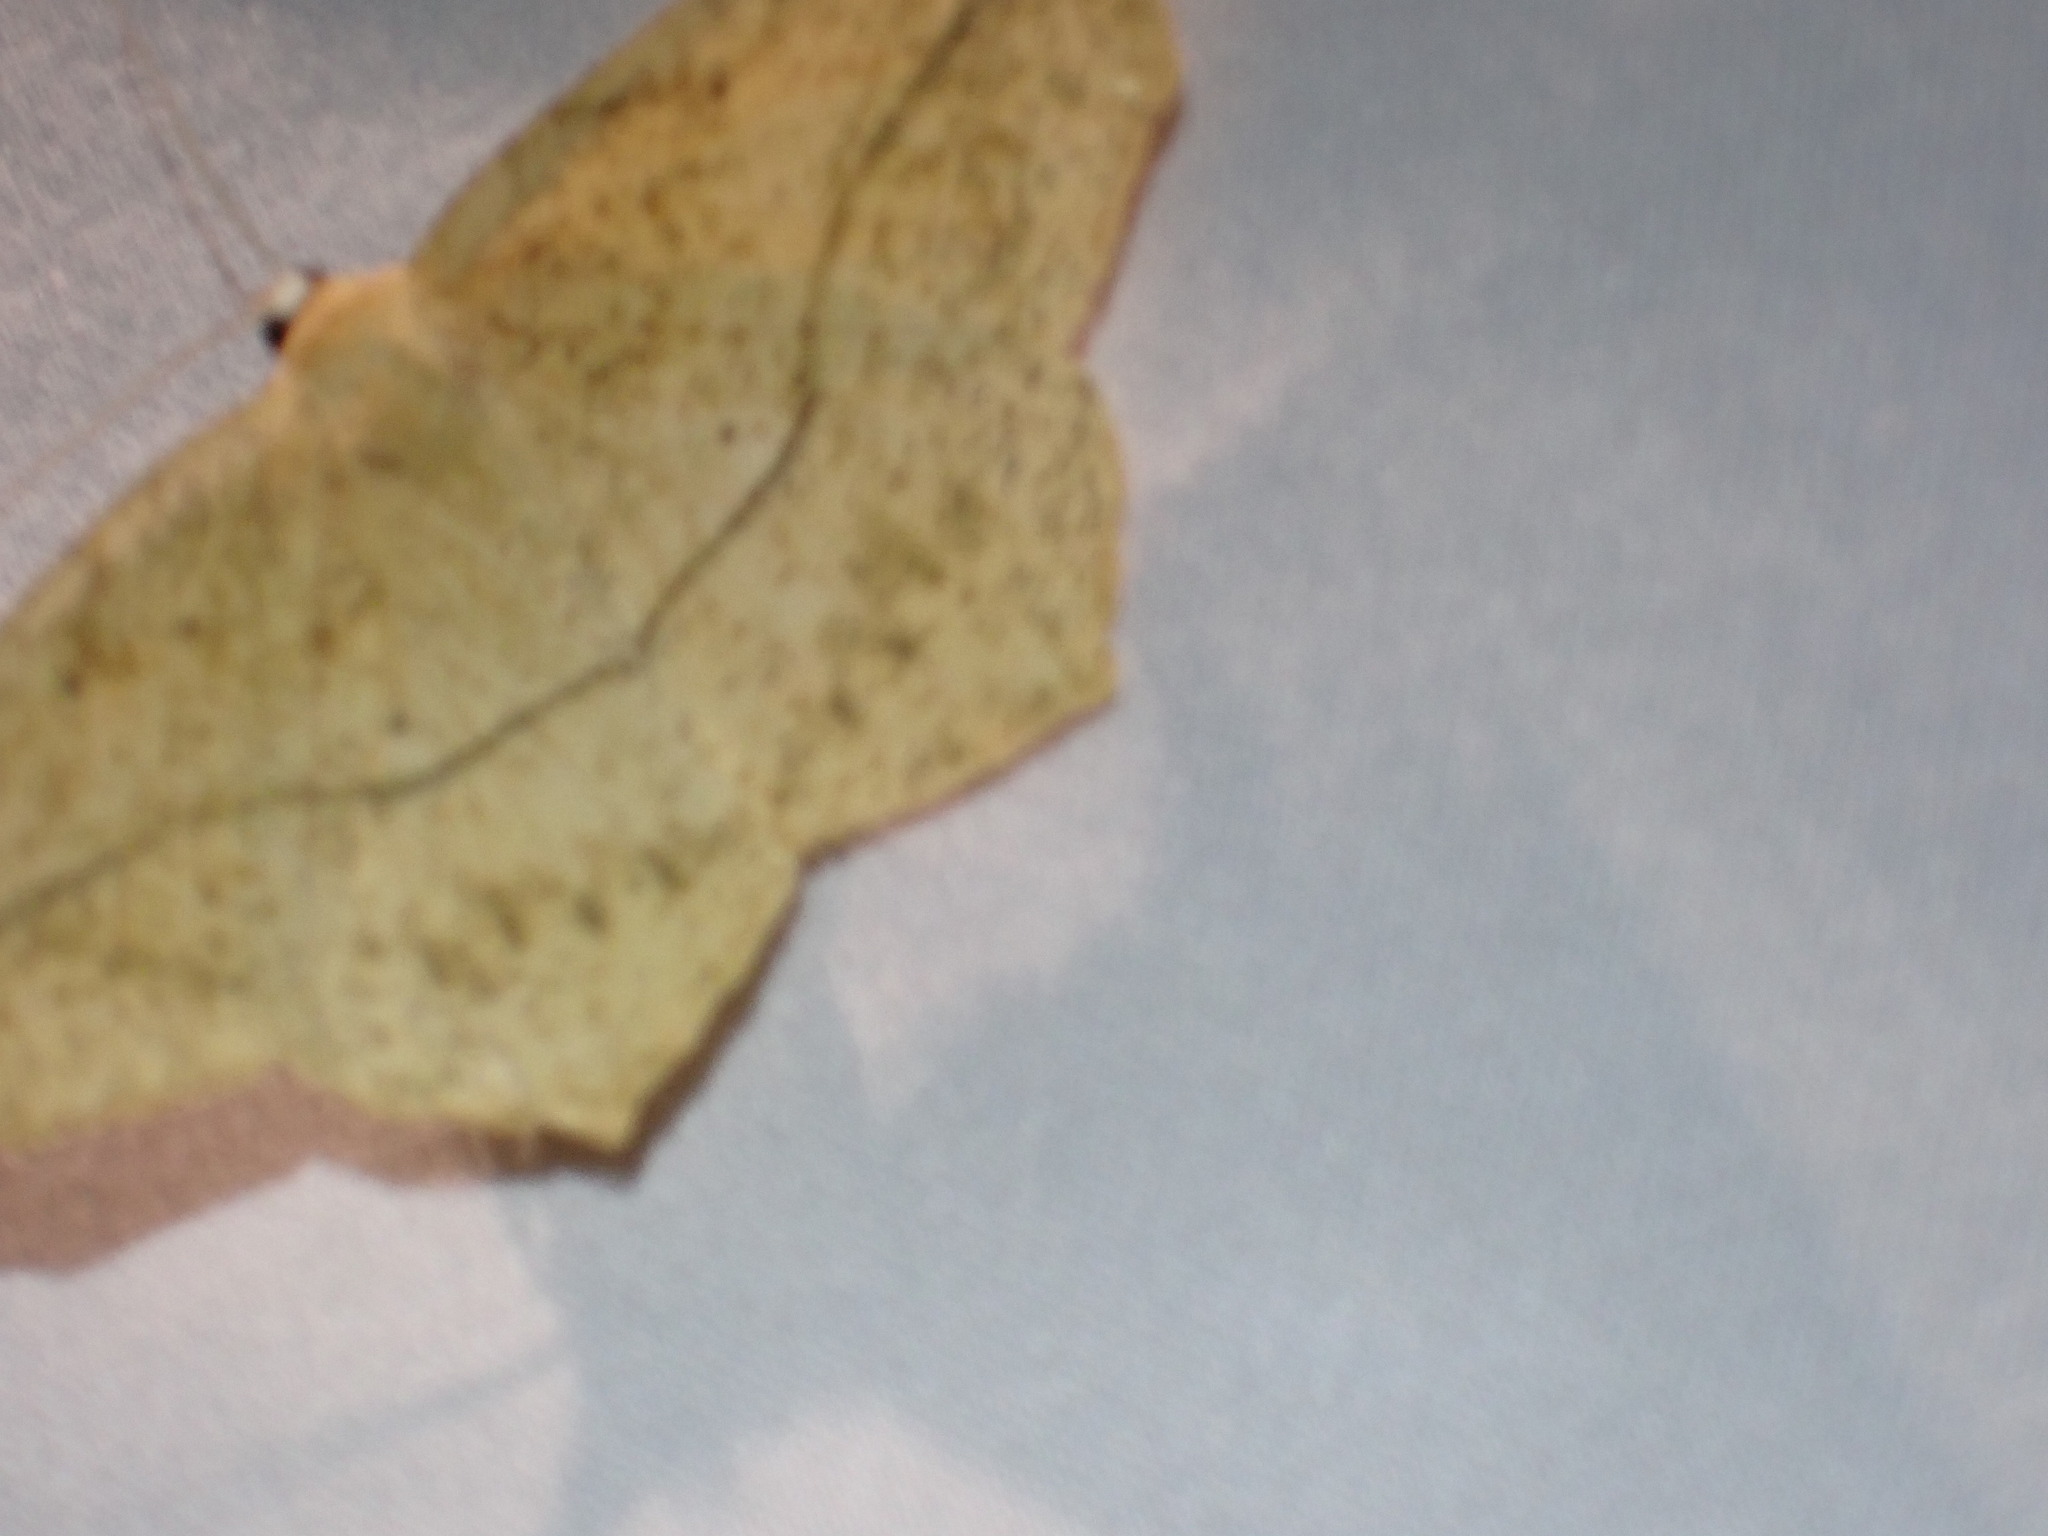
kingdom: Animalia
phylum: Arthropoda
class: Insecta
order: Lepidoptera
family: Geometridae
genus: Prochoerodes
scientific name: Prochoerodes lineola
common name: Large maple spanworm
